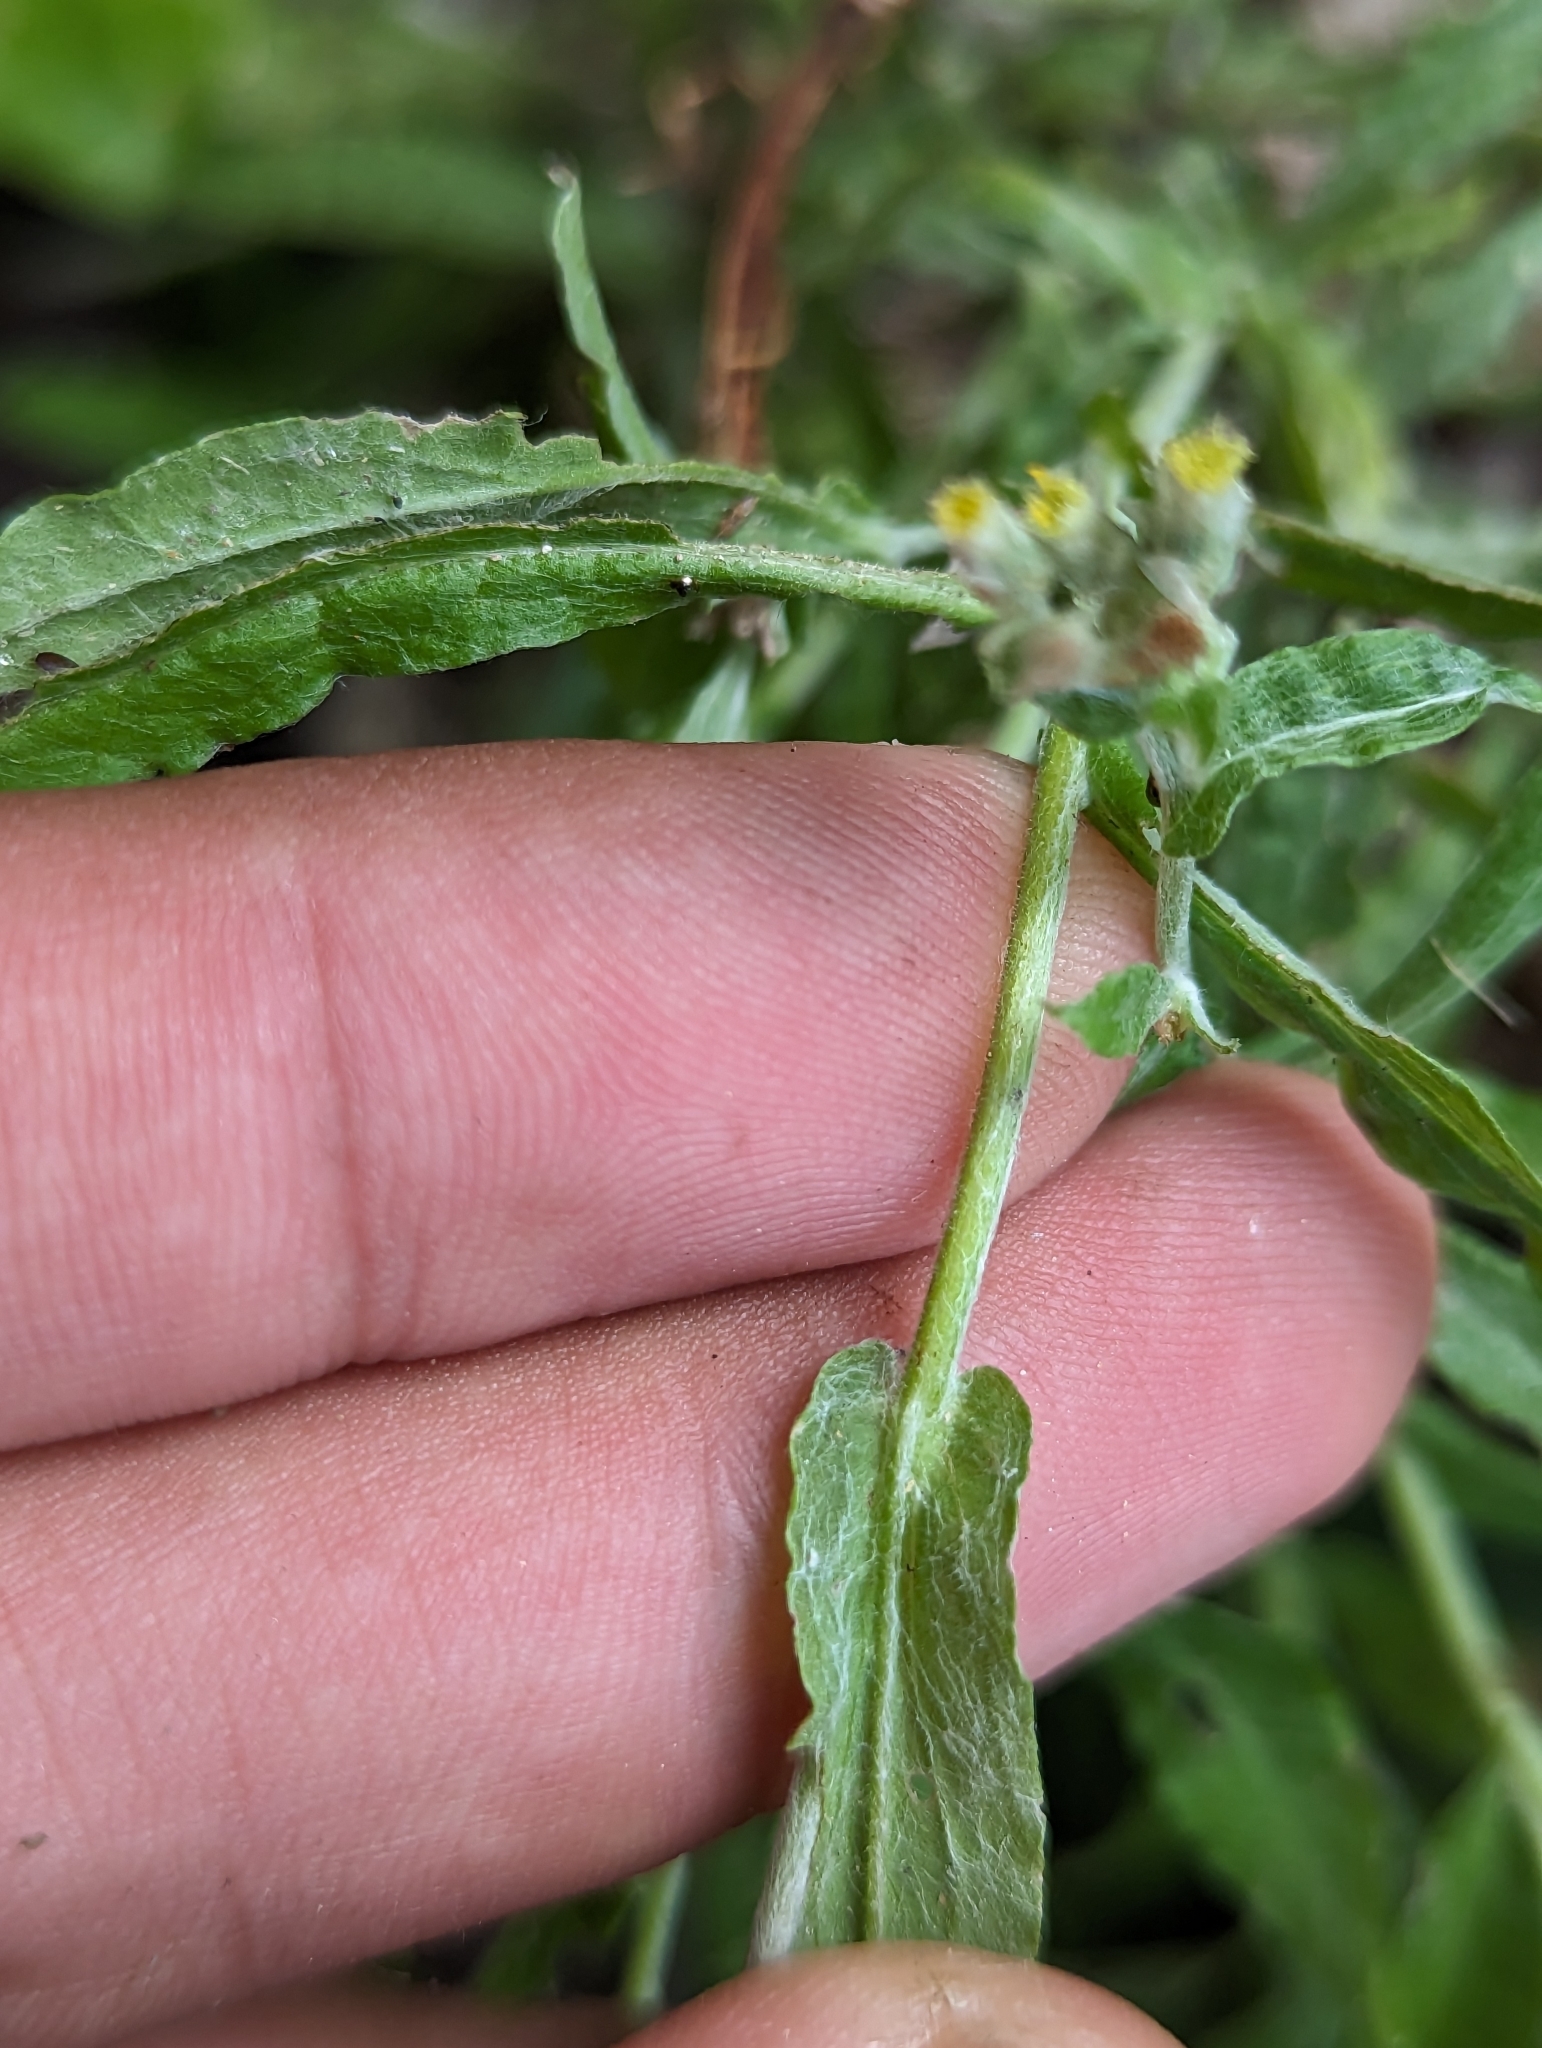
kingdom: Plantae
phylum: Tracheophyta
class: Magnoliopsida
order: Asterales
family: Asteraceae
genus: Pseudognaphalium
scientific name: Pseudognaphalium biolettii
